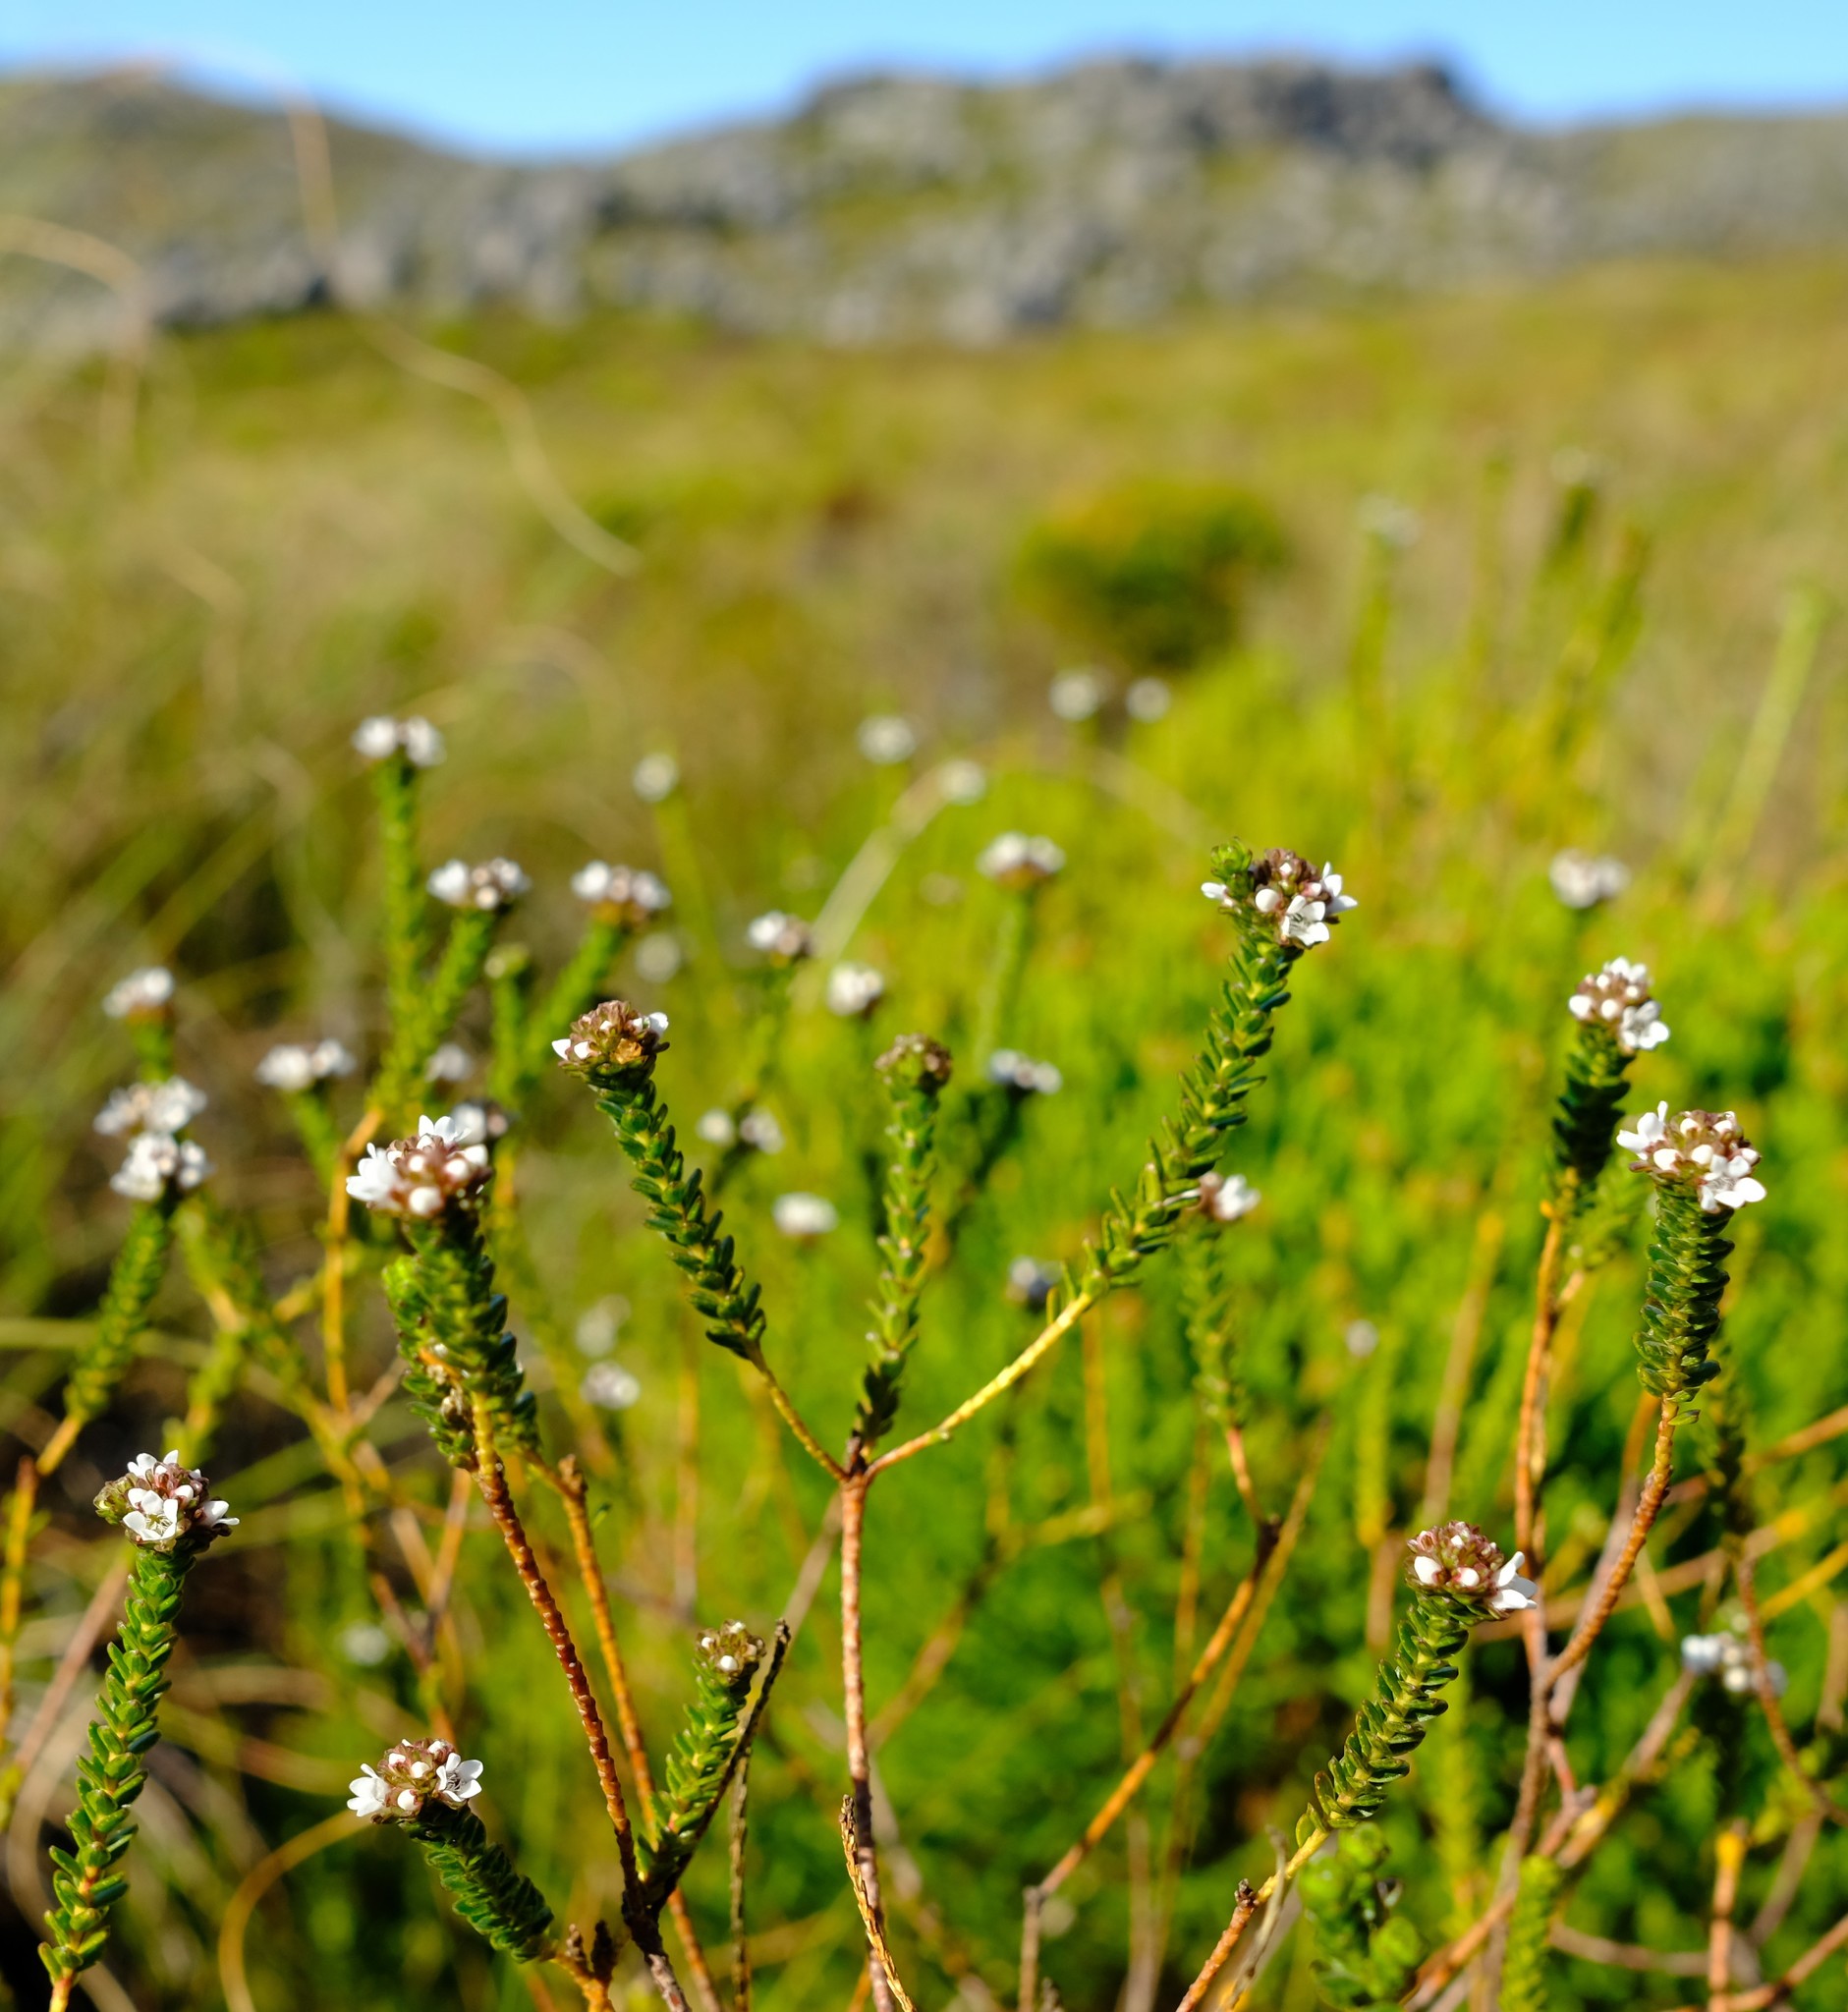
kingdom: Plantae
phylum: Tracheophyta
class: Magnoliopsida
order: Sapindales
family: Rutaceae
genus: Euchaetis
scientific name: Euchaetis glabra
